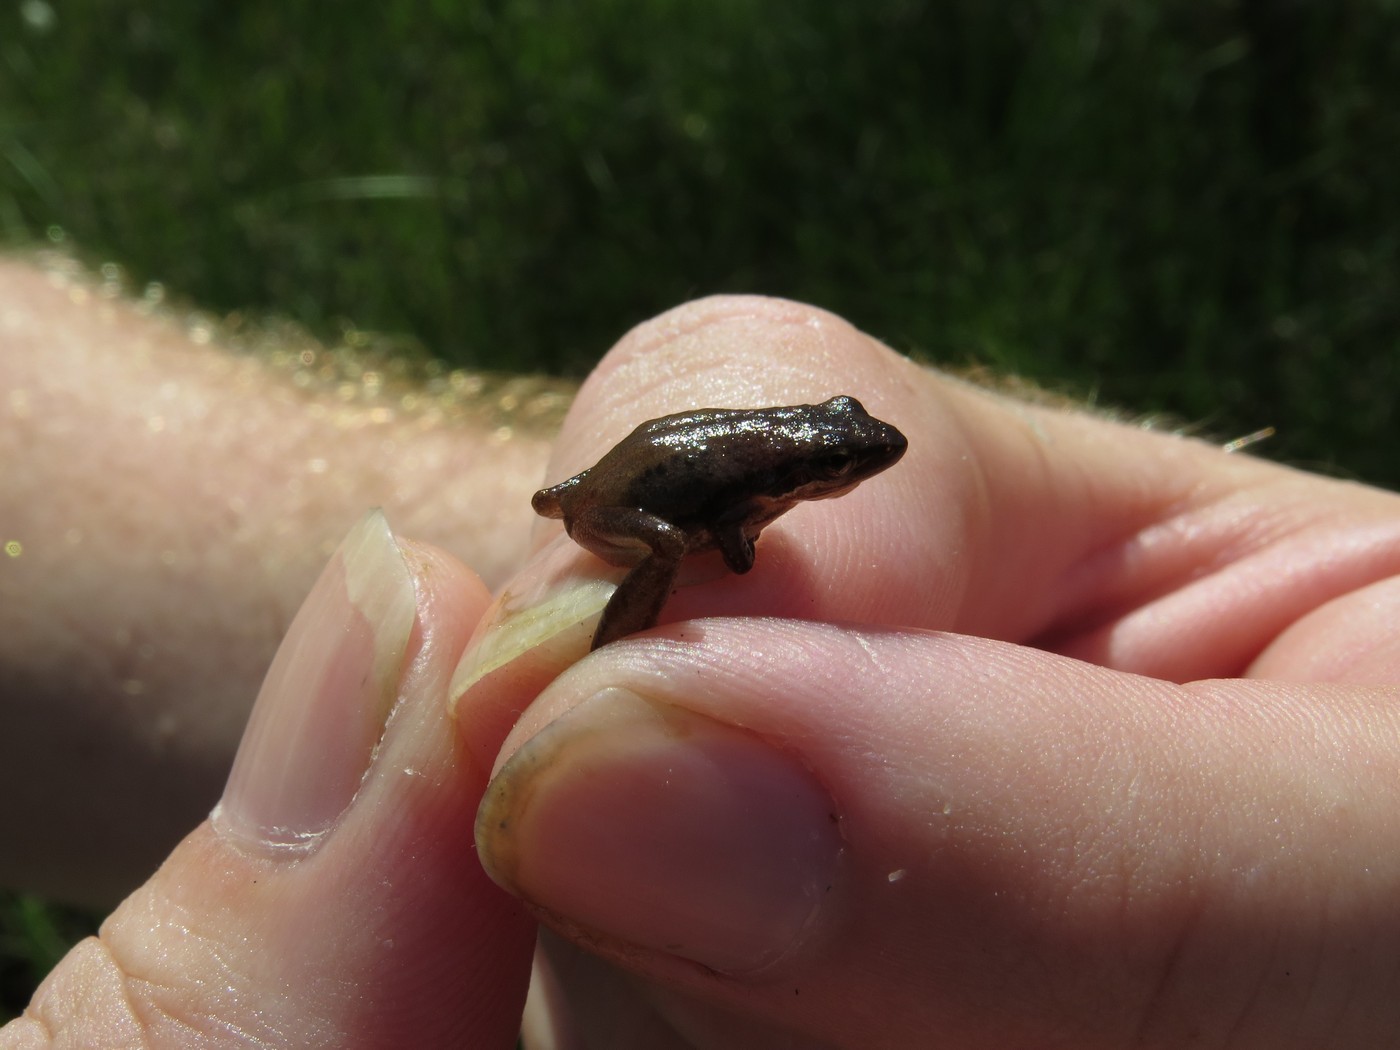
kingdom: Animalia
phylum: Chordata
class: Amphibia
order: Anura
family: Hylidae
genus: Pseudacris
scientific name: Pseudacris ocularis
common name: Little grass frog
